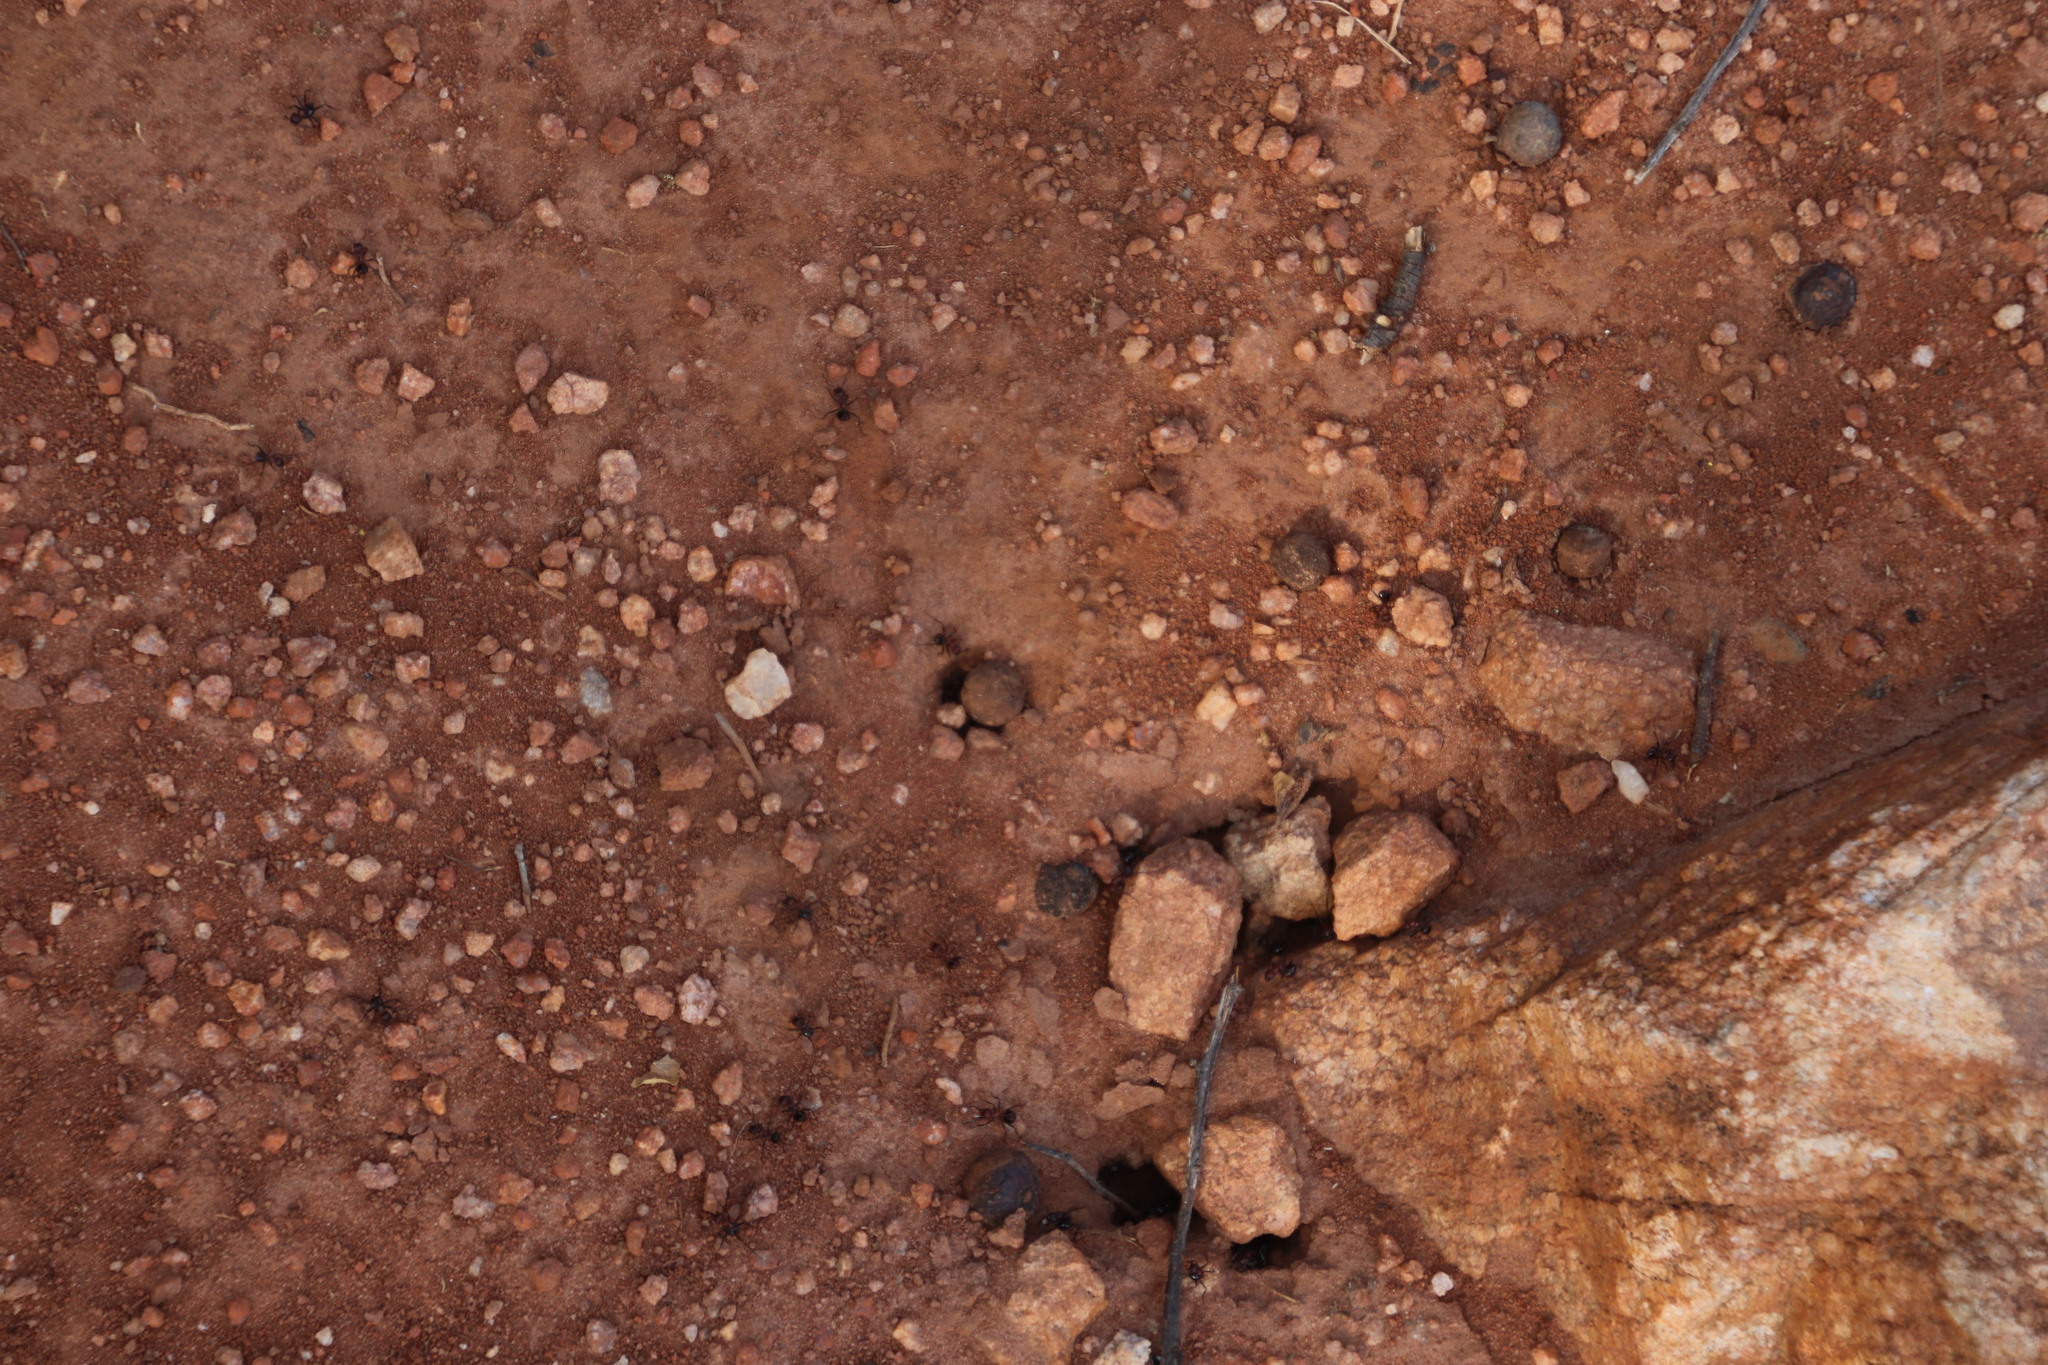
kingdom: Animalia
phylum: Arthropoda
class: Insecta
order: Hymenoptera
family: Formicidae
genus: Myrmicaria
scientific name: Myrmicaria natalensis
